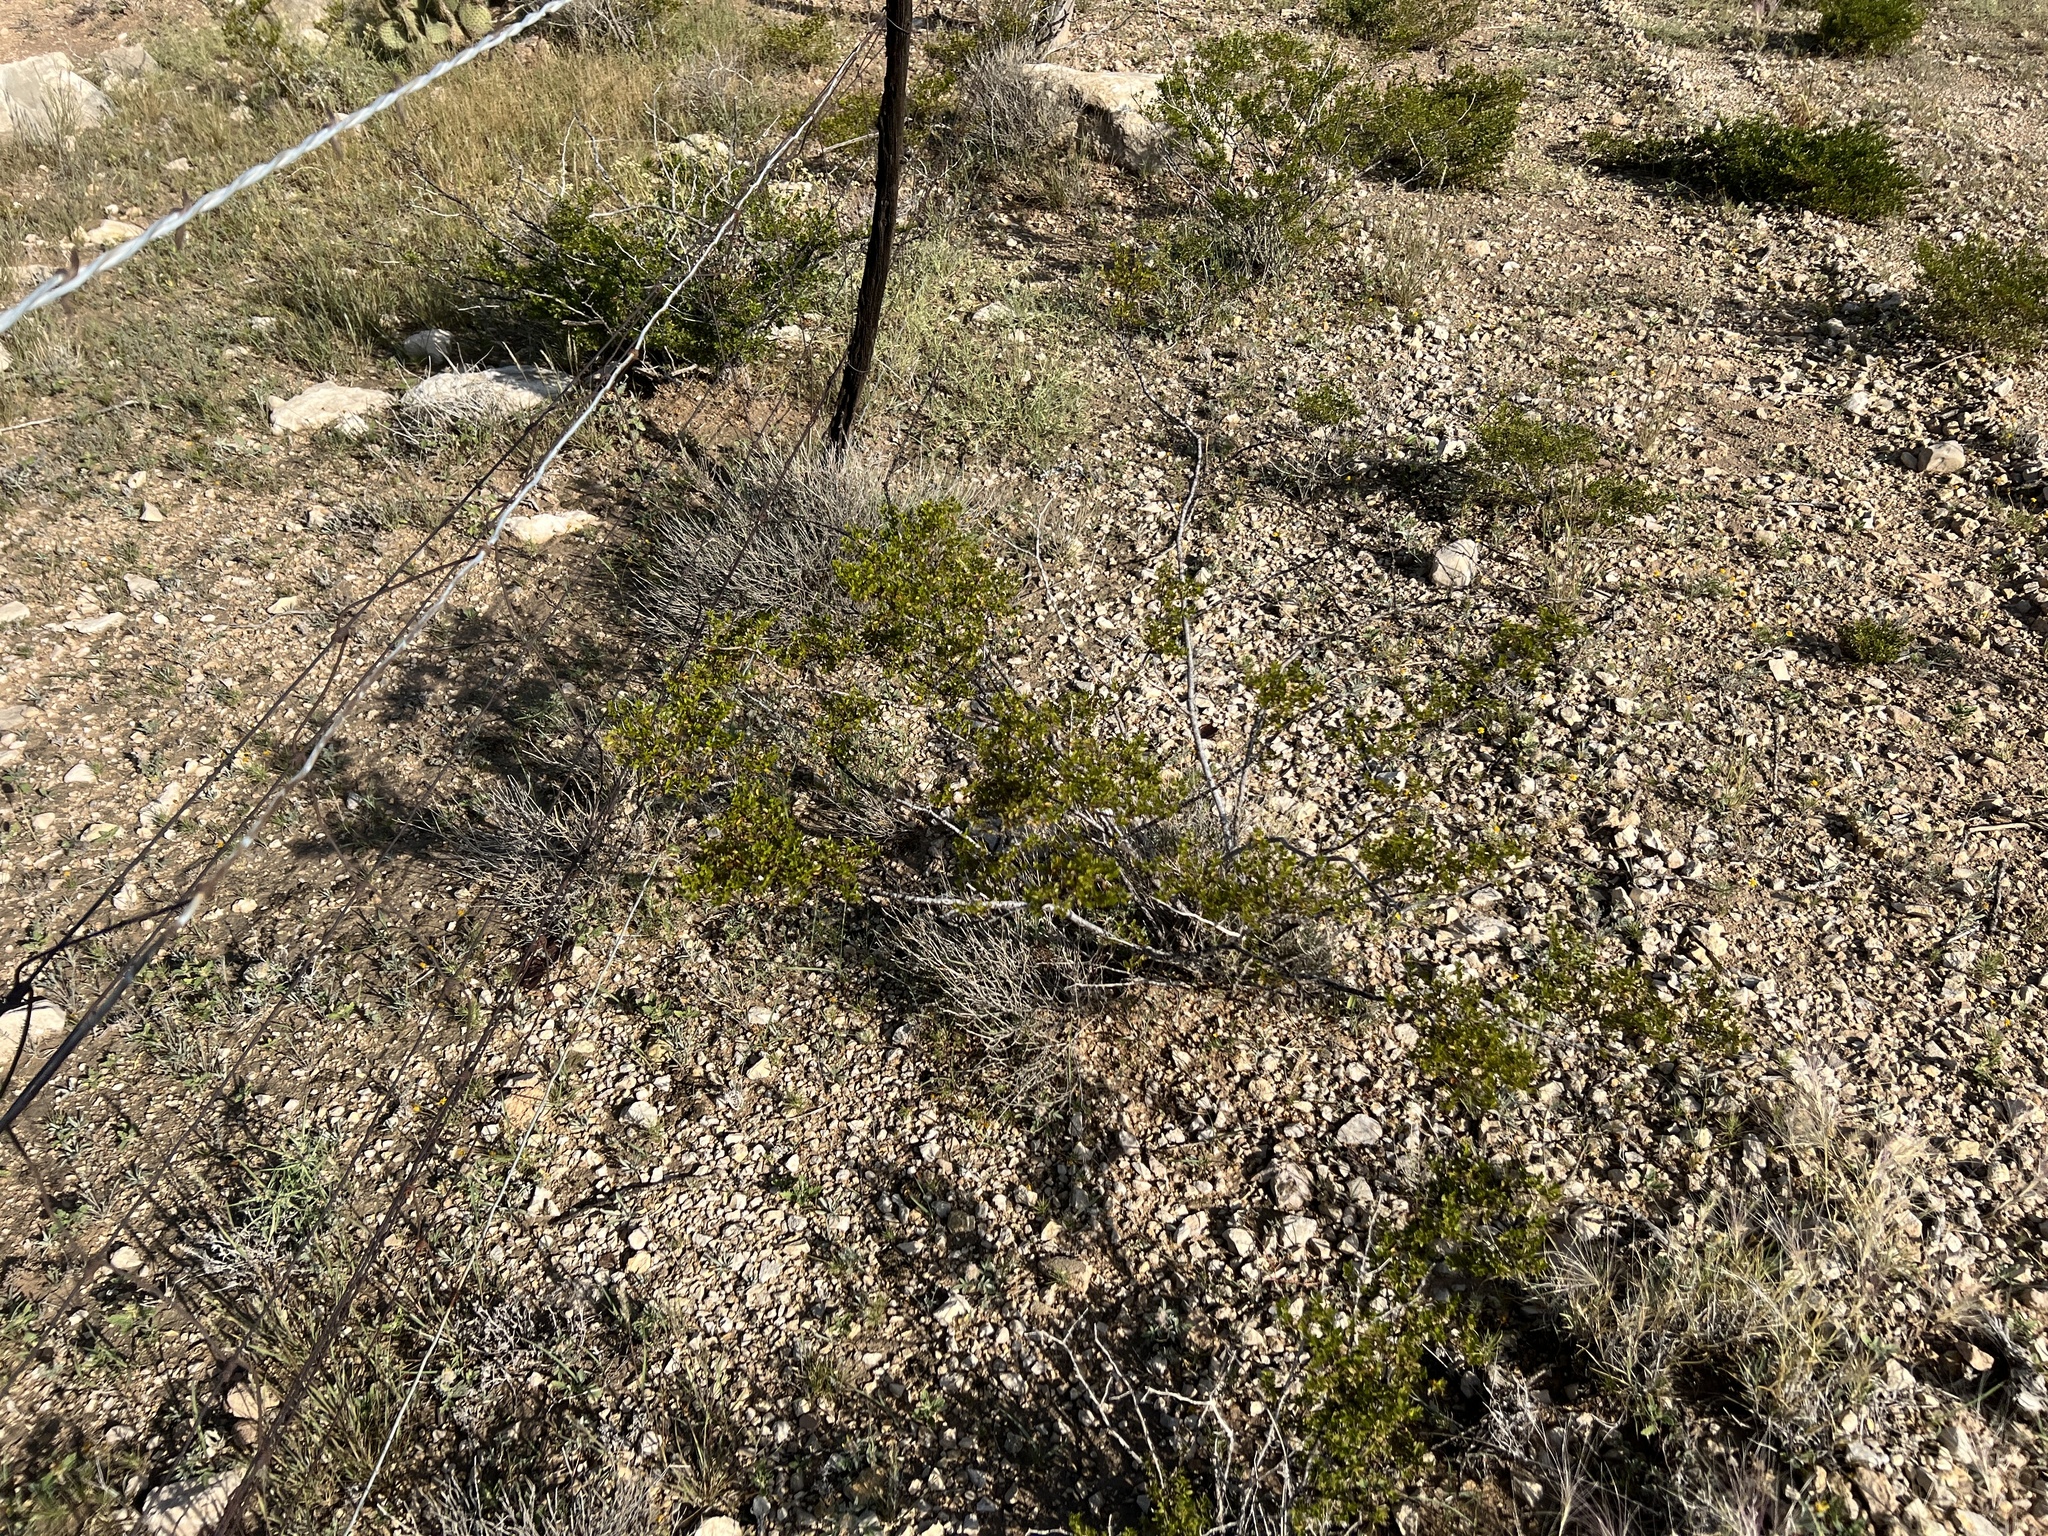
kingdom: Plantae
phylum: Tracheophyta
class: Magnoliopsida
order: Zygophyllales
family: Zygophyllaceae
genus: Larrea
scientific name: Larrea tridentata
